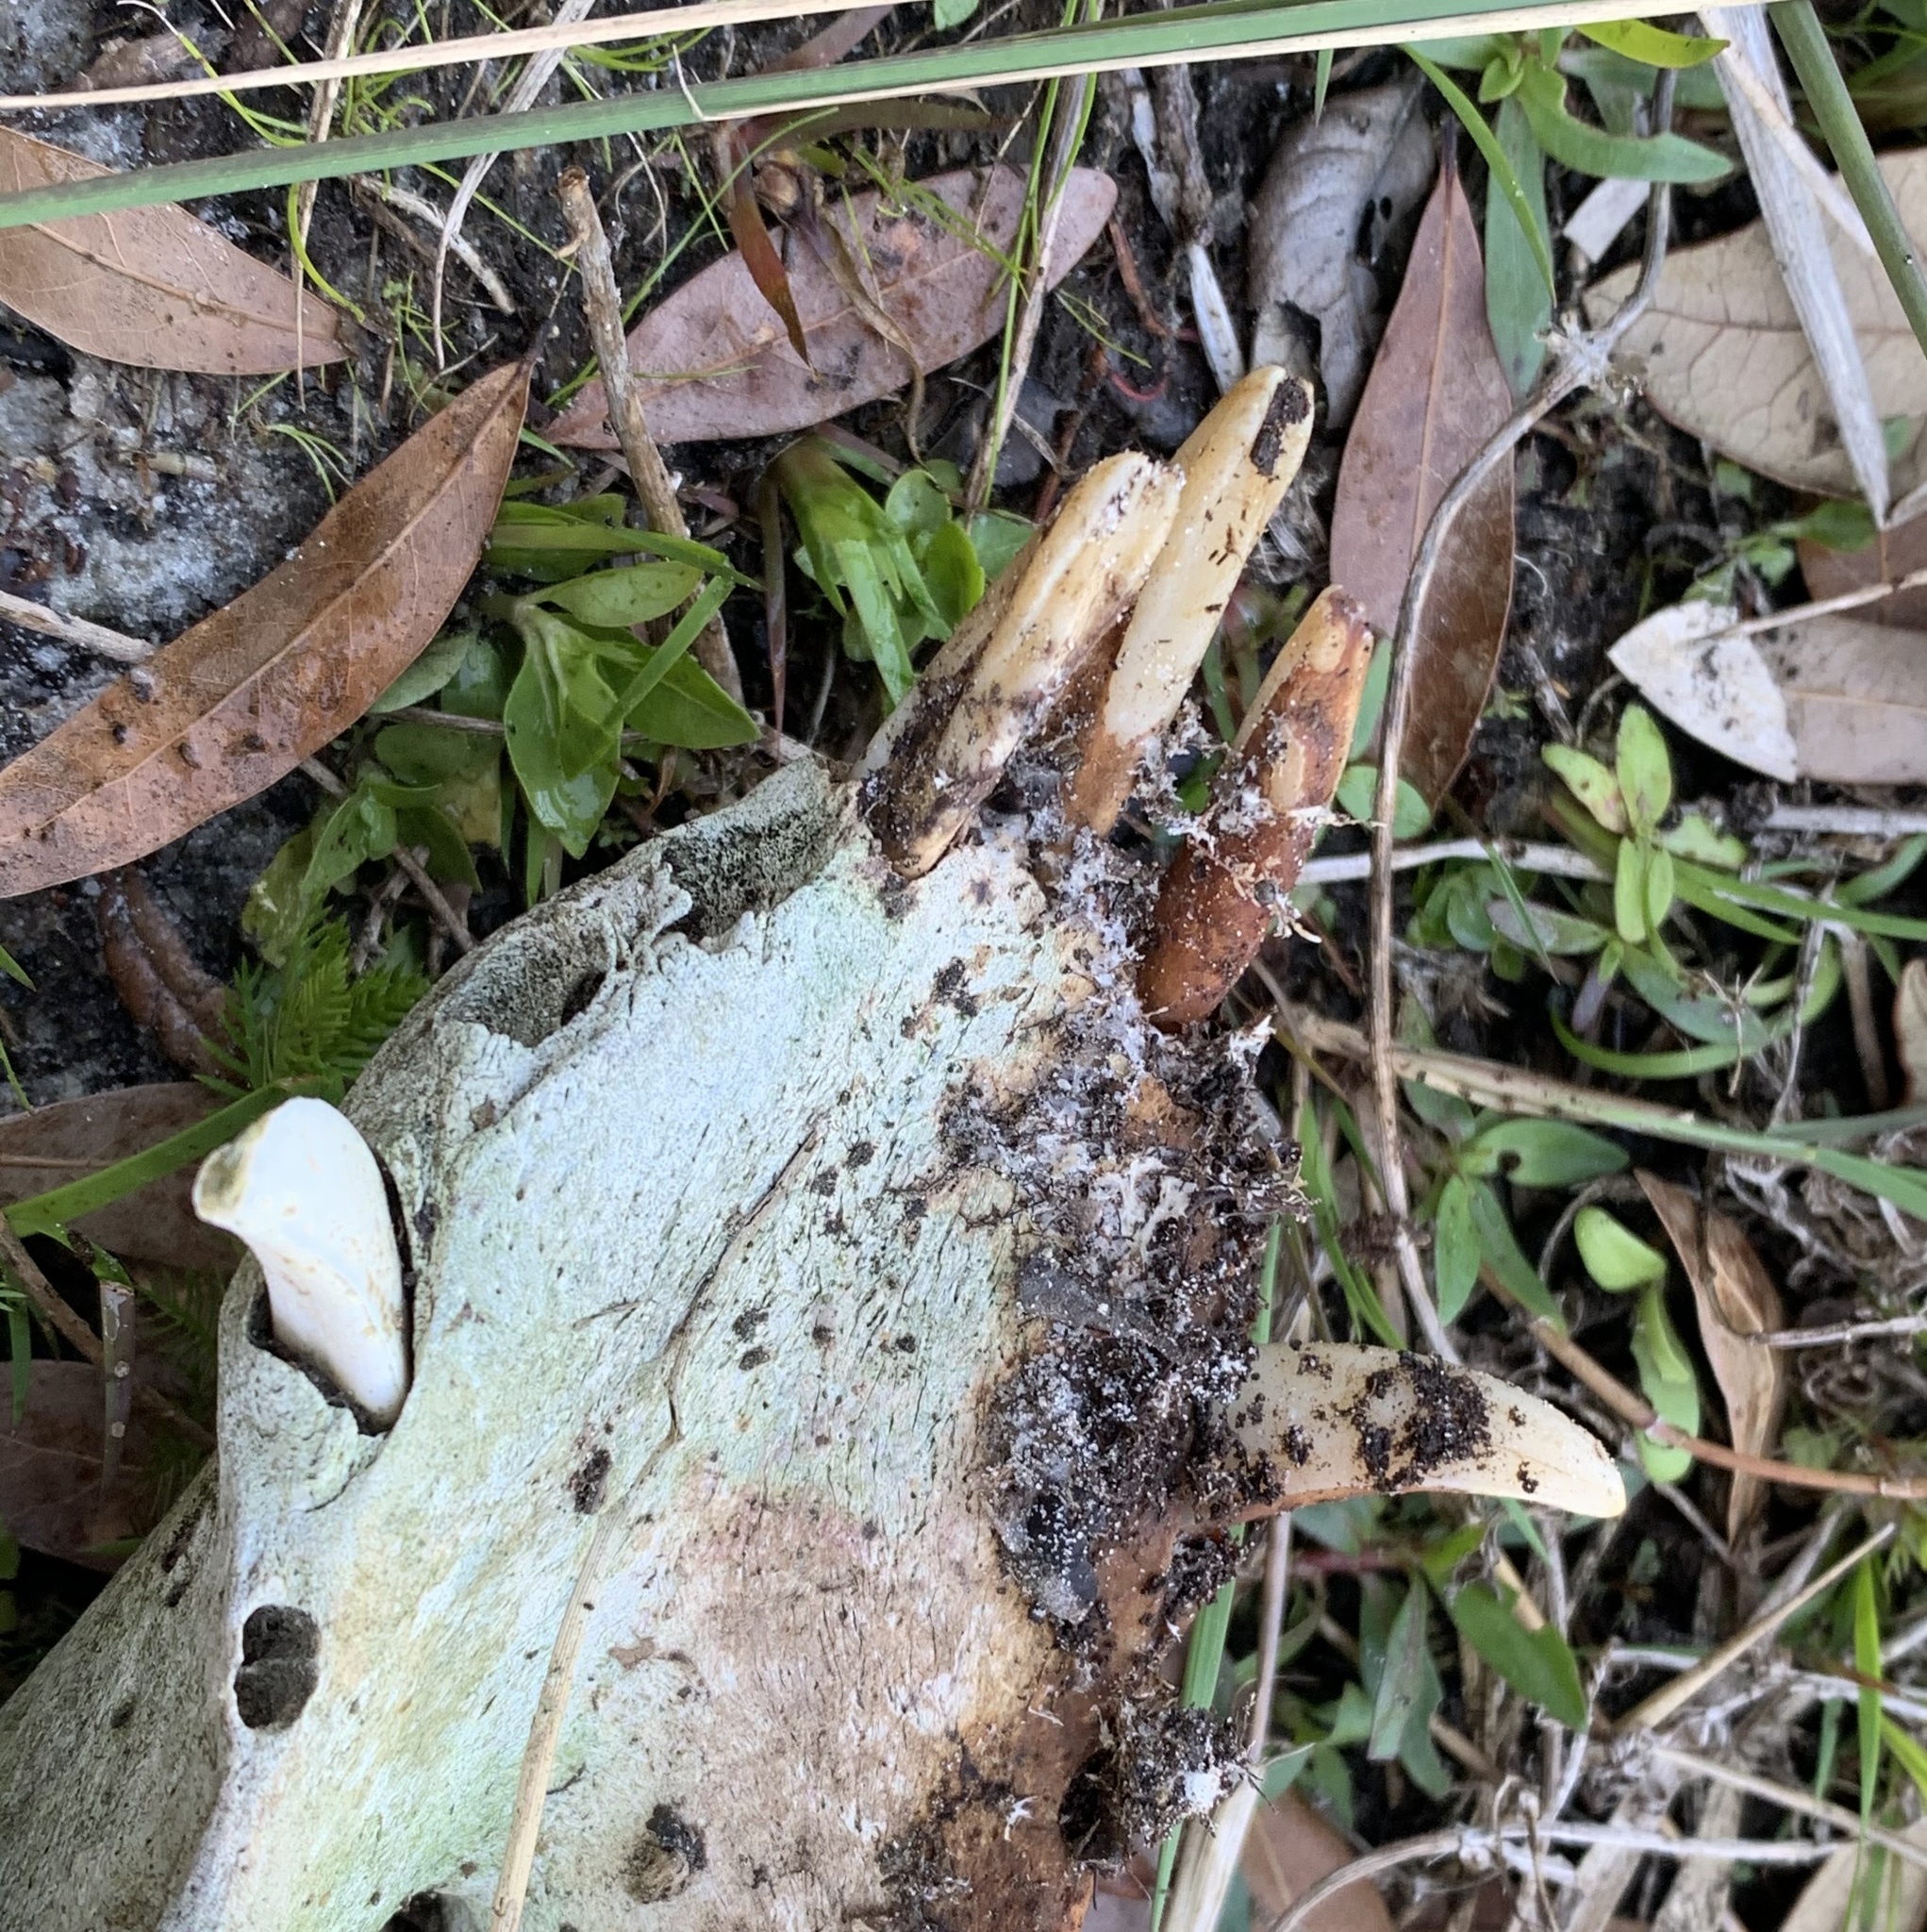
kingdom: Animalia
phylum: Chordata
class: Mammalia
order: Artiodactyla
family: Suidae
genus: Sus
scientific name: Sus scrofa
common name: Wild boar
